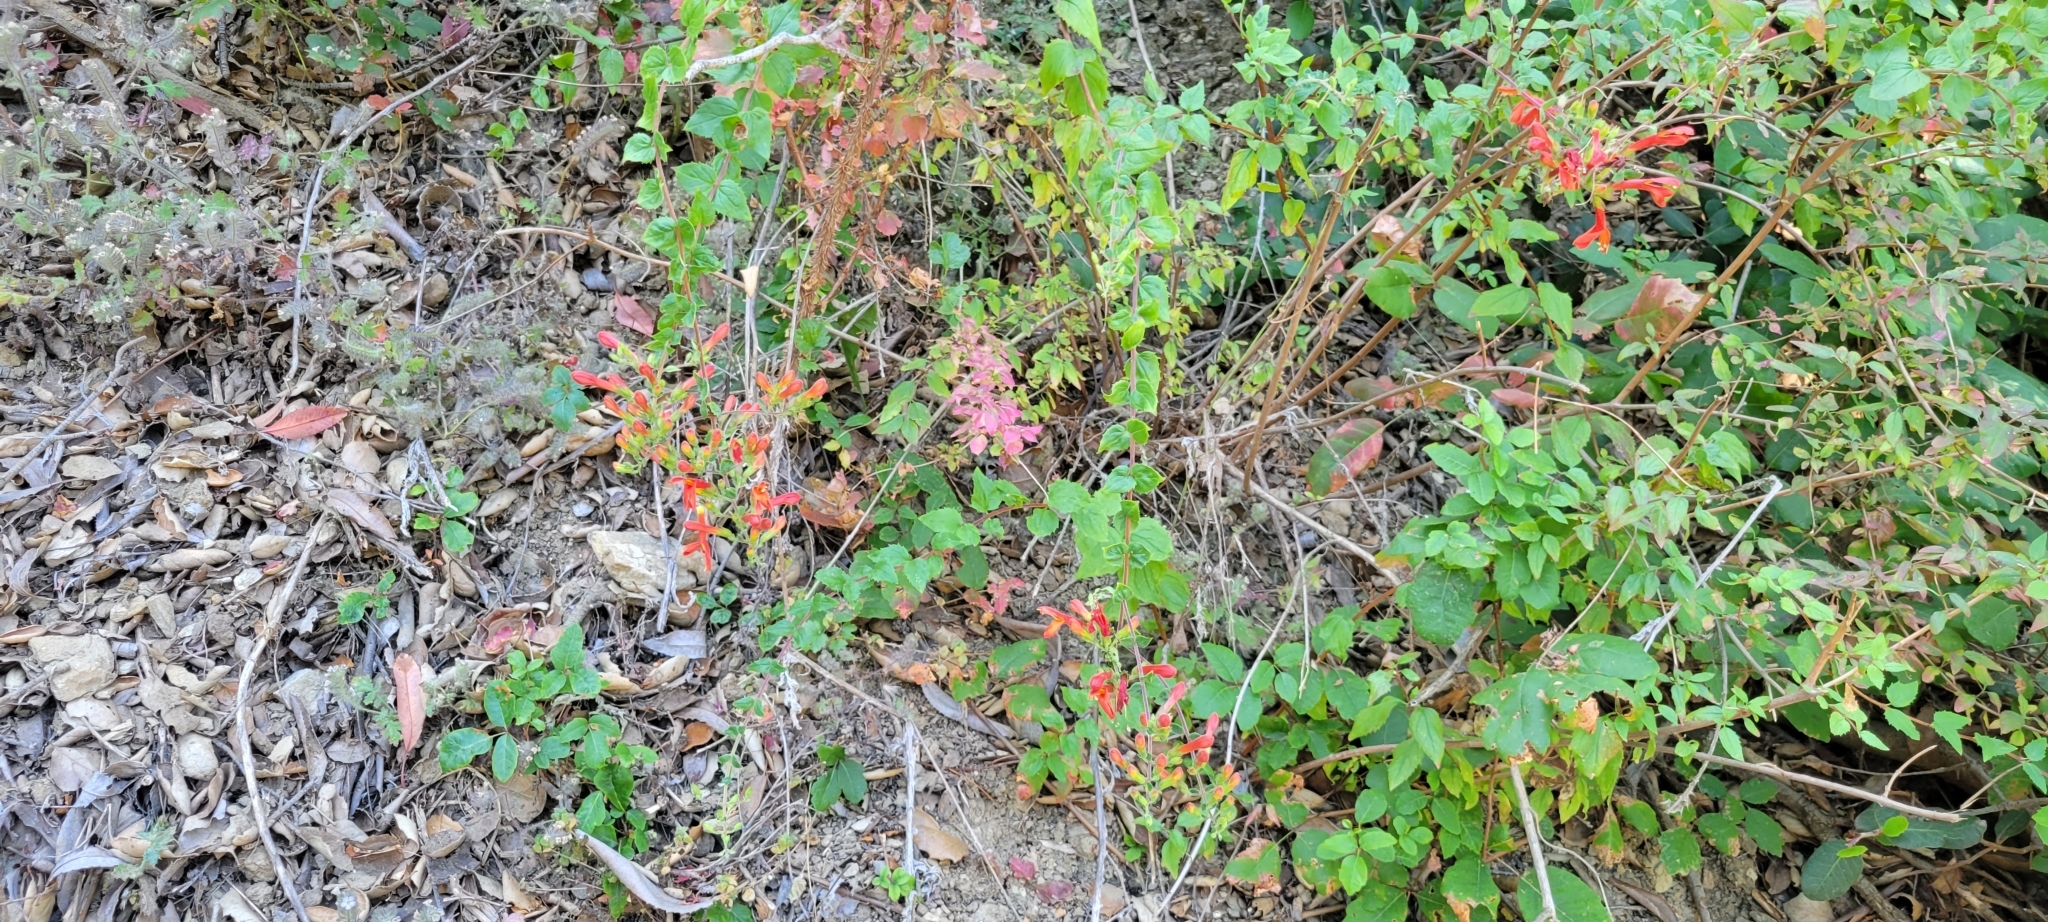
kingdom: Plantae
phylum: Tracheophyta
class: Magnoliopsida
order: Lamiales
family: Plantaginaceae
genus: Keckiella
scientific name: Keckiella cordifolia
